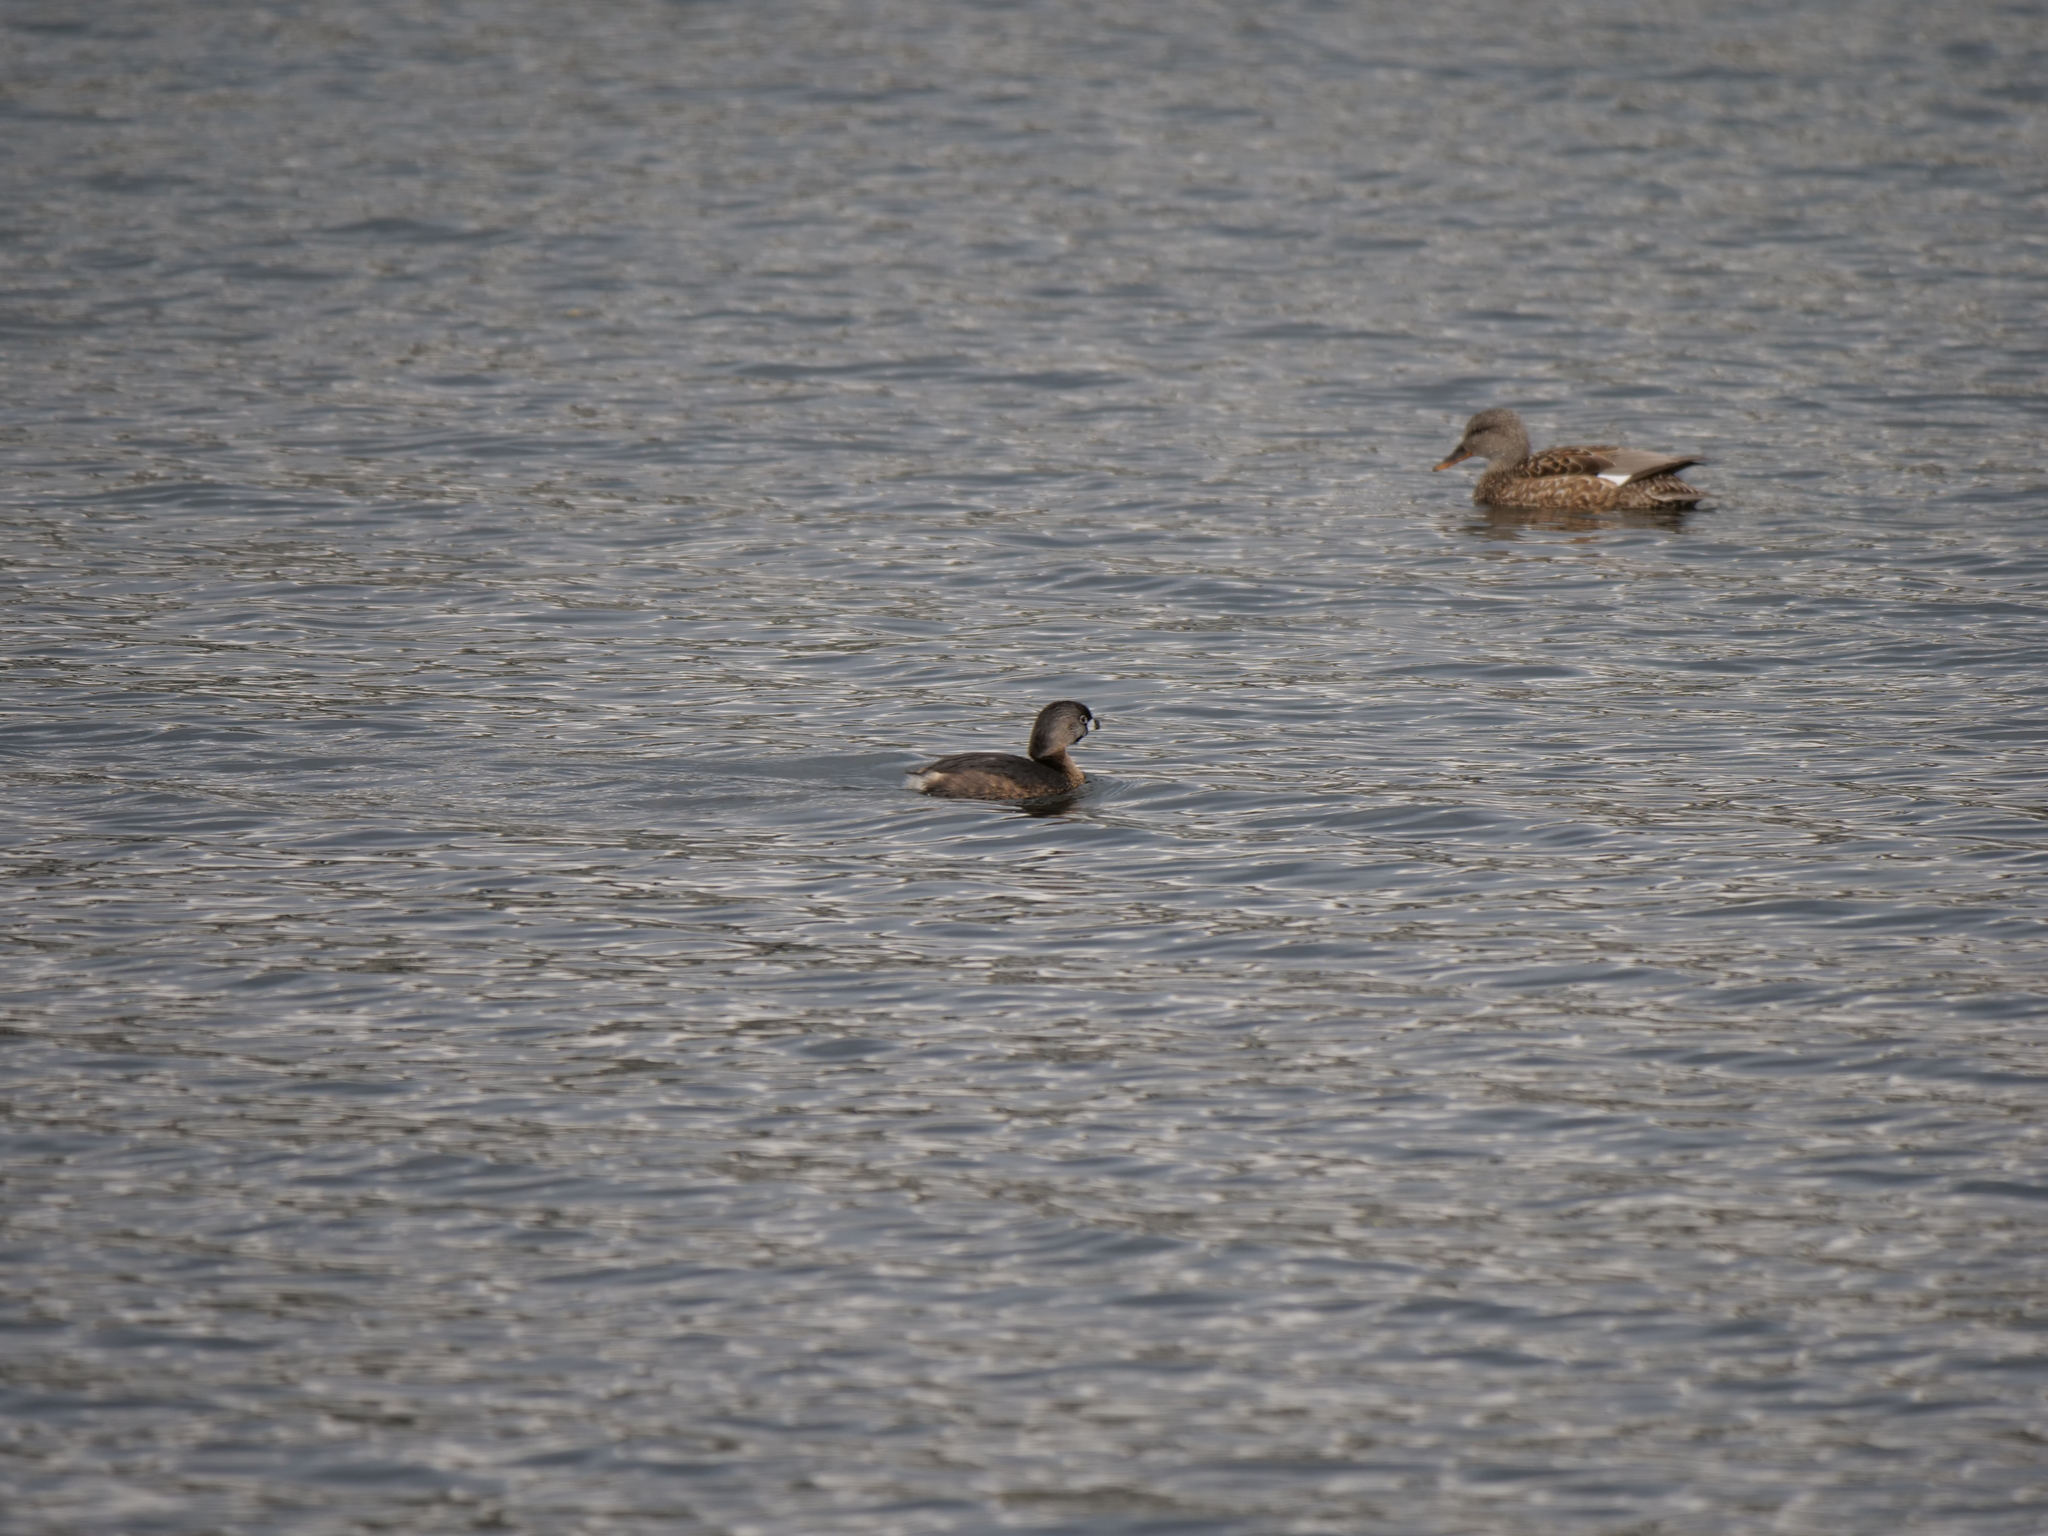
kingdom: Animalia
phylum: Chordata
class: Aves
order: Podicipediformes
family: Podicipedidae
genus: Podilymbus
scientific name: Podilymbus podiceps
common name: Pied-billed grebe
